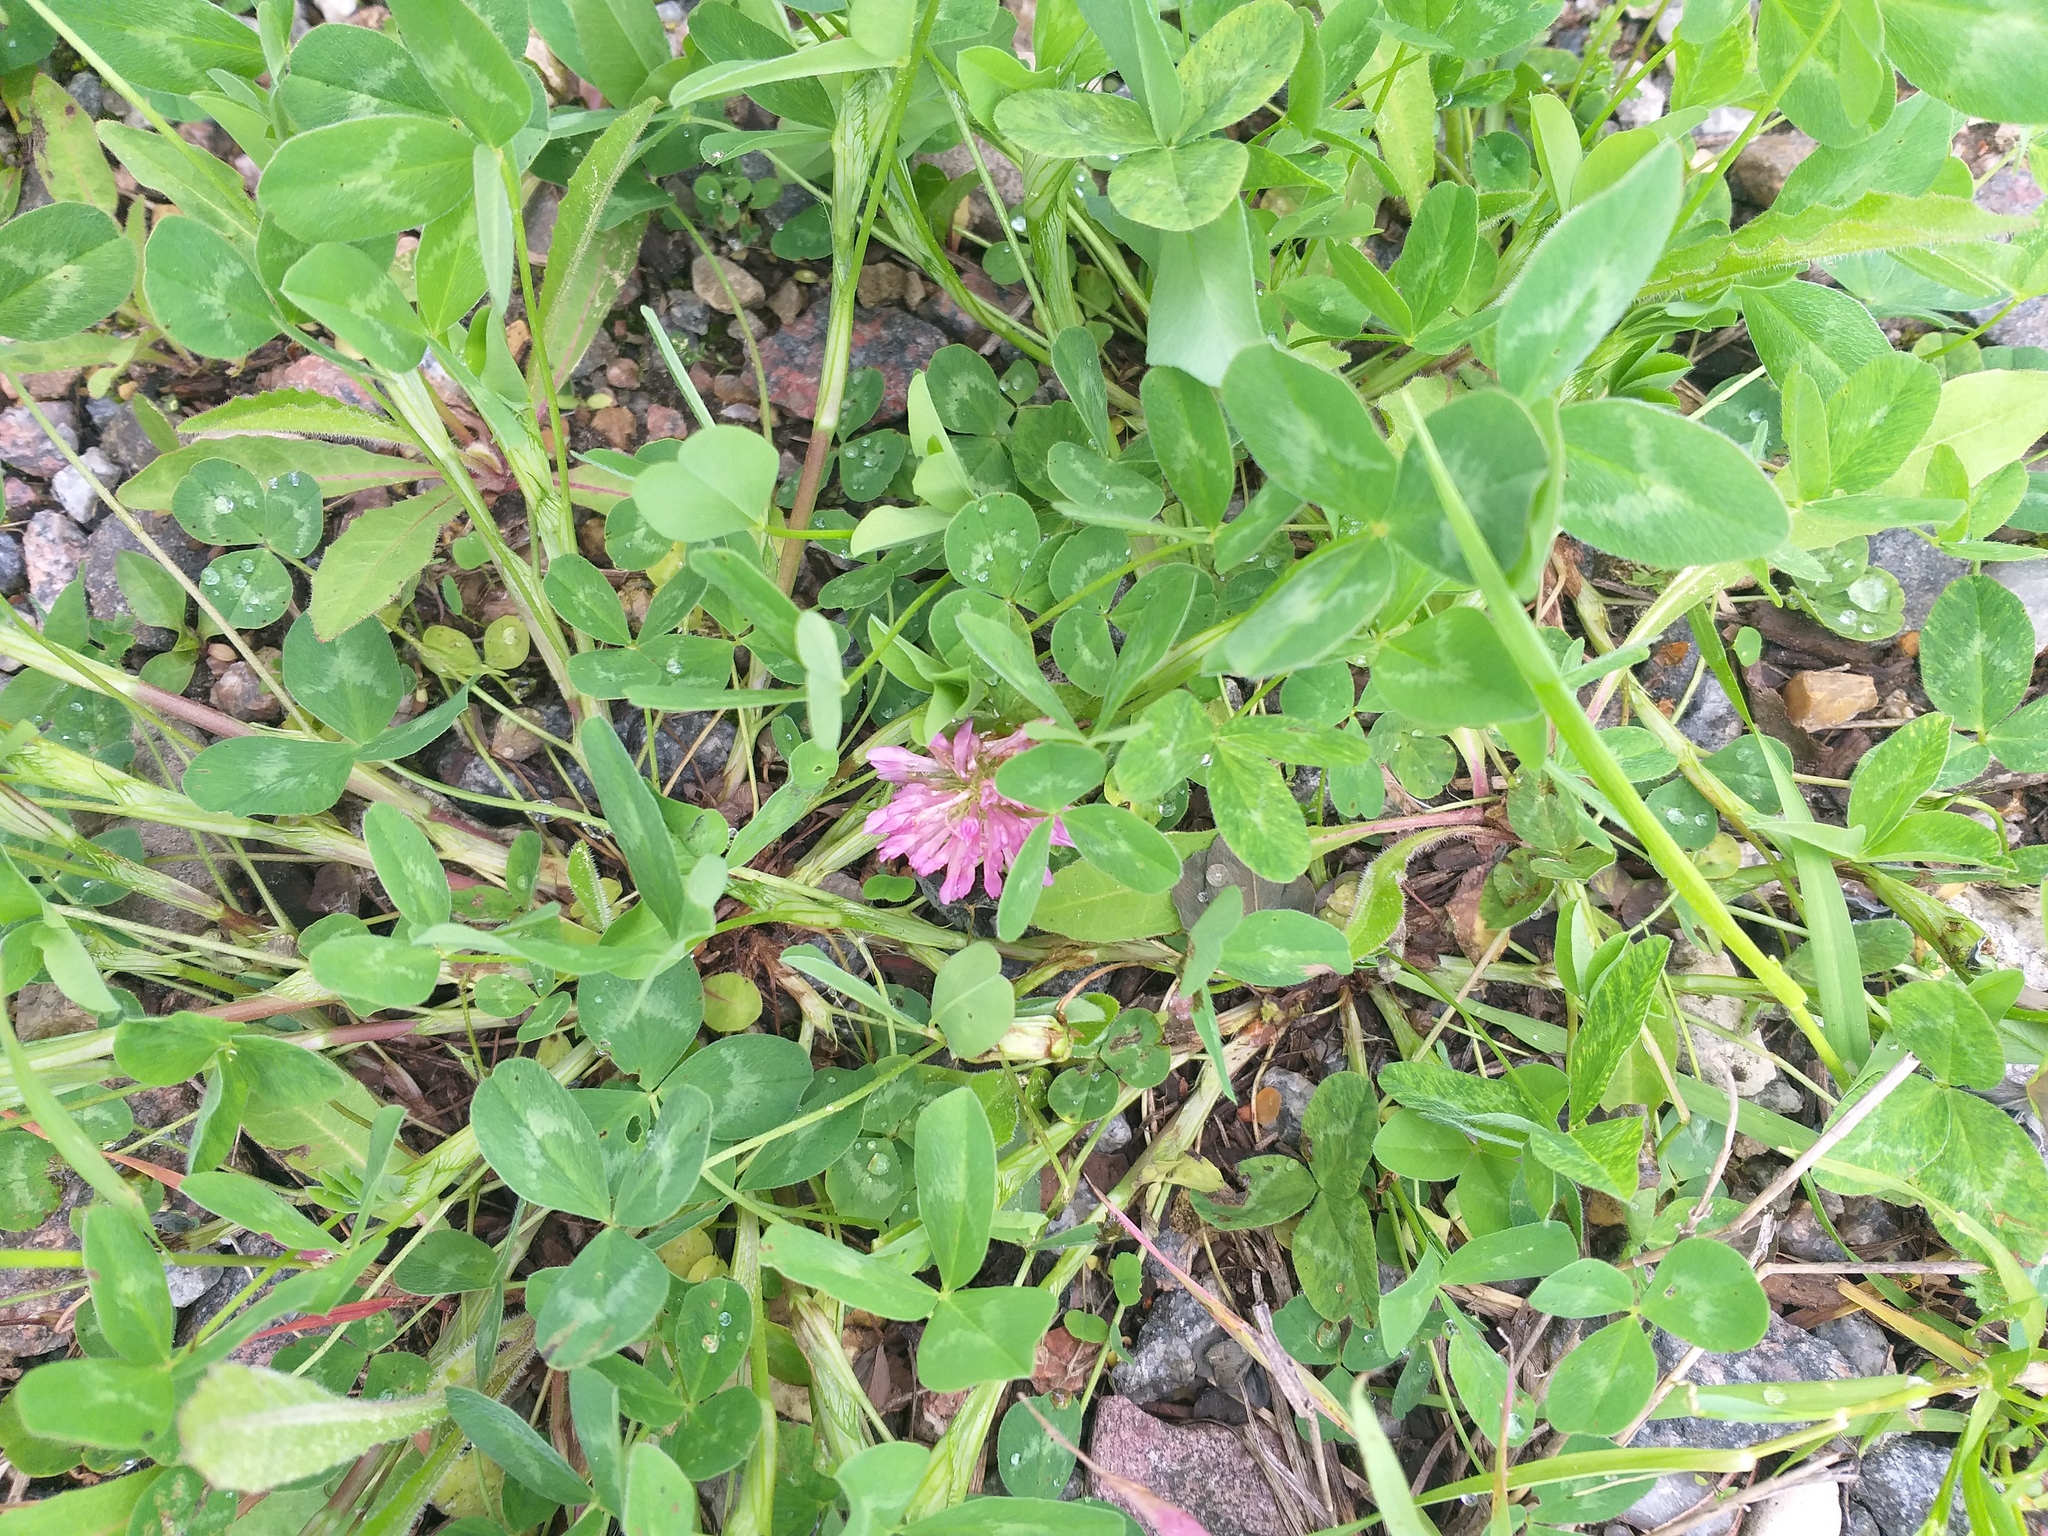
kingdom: Plantae
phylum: Tracheophyta
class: Magnoliopsida
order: Fabales
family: Fabaceae
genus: Trifolium
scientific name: Trifolium pratense
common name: Red clover
